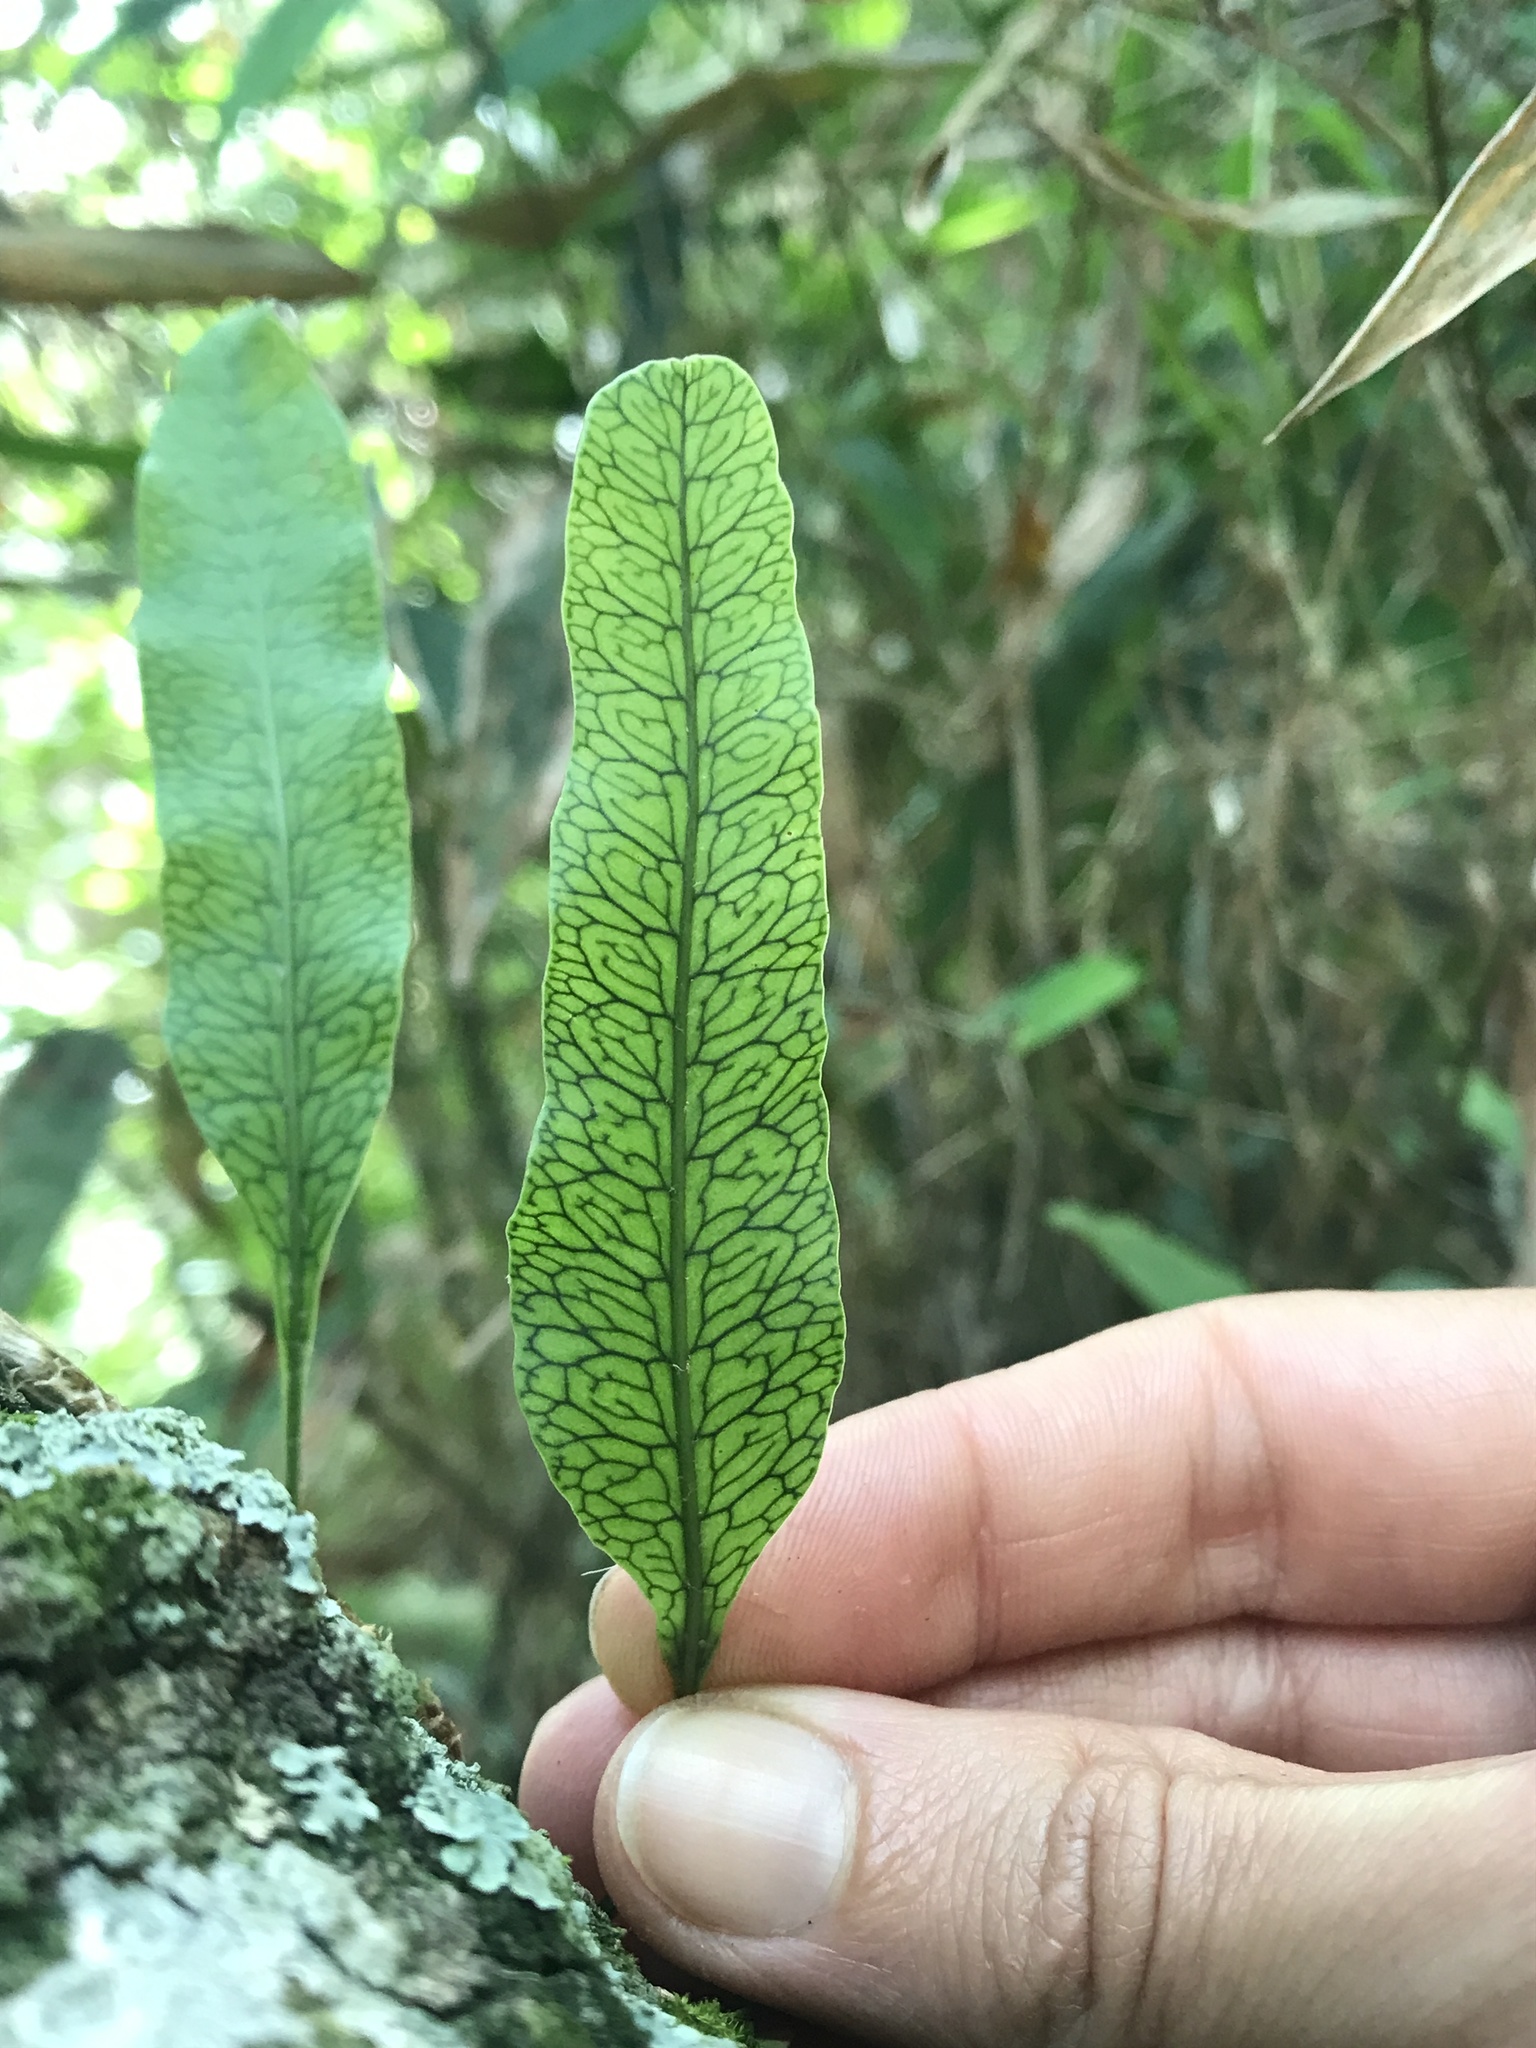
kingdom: Plantae
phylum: Tracheophyta
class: Polypodiopsida
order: Polypodiales
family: Polypodiaceae
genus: Microgramma
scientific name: Microgramma squamulosa
